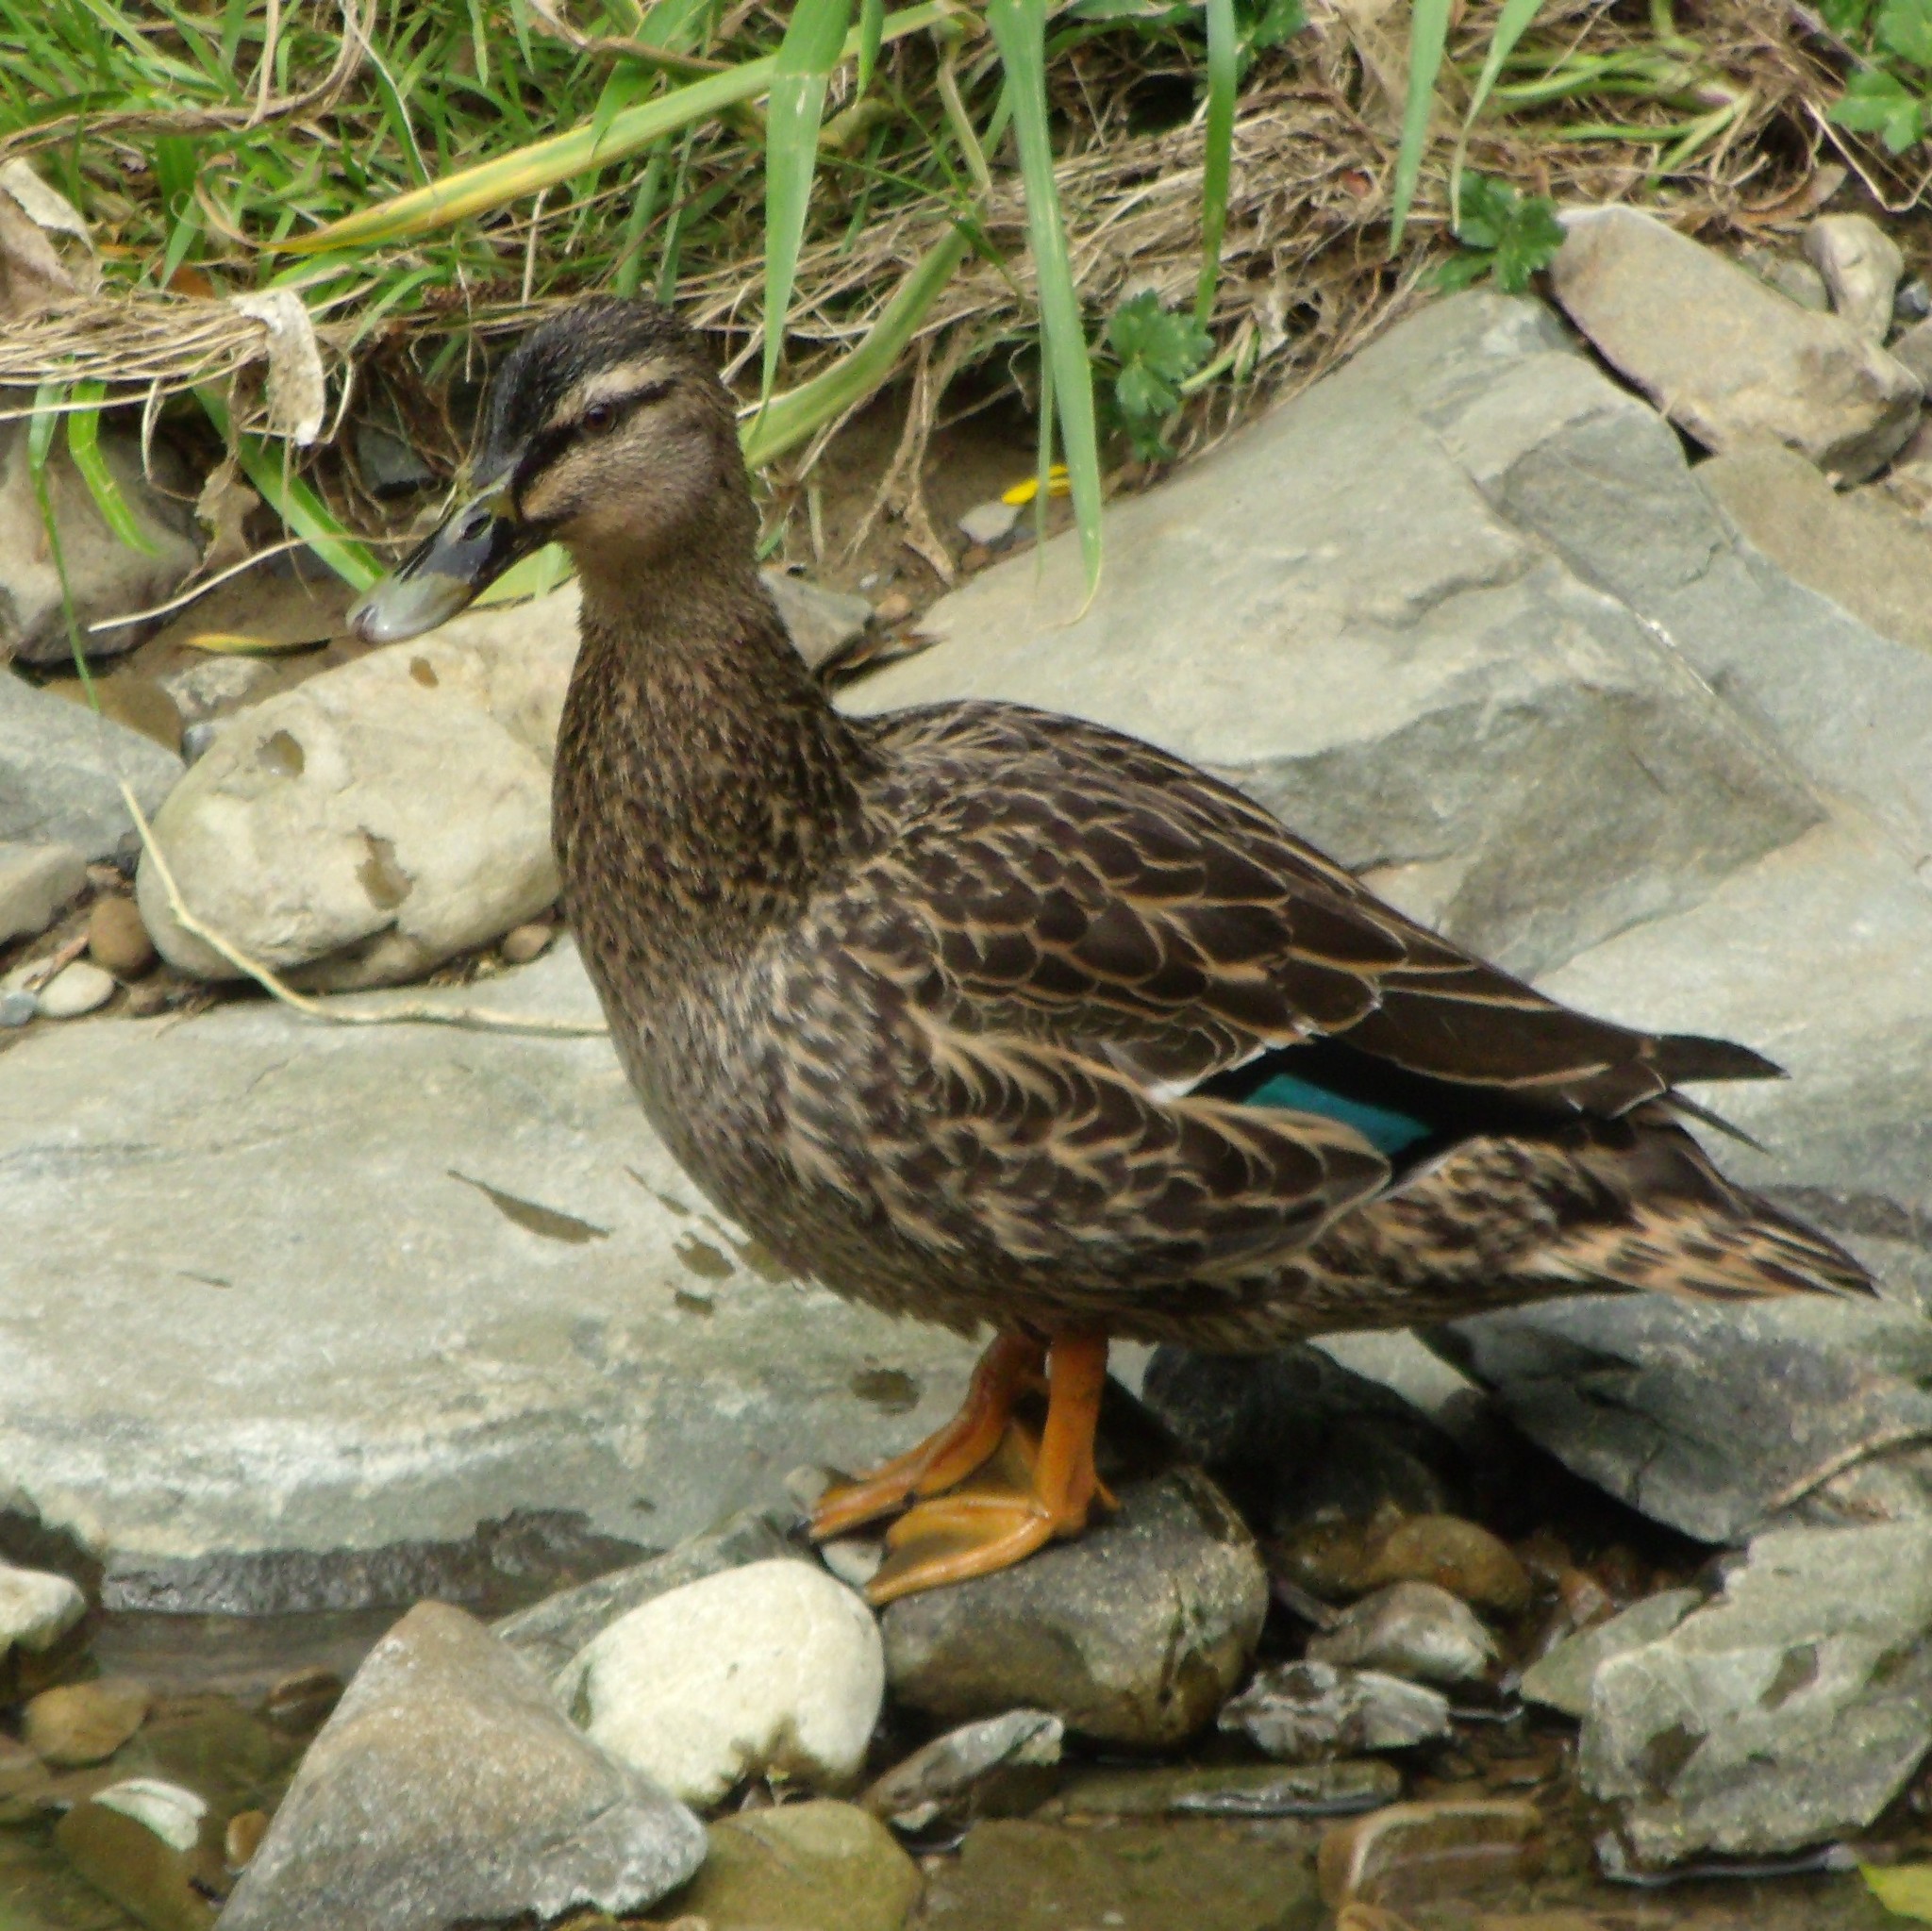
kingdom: Animalia
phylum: Chordata
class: Aves
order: Anseriformes
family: Anatidae
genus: Anas
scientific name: Anas
